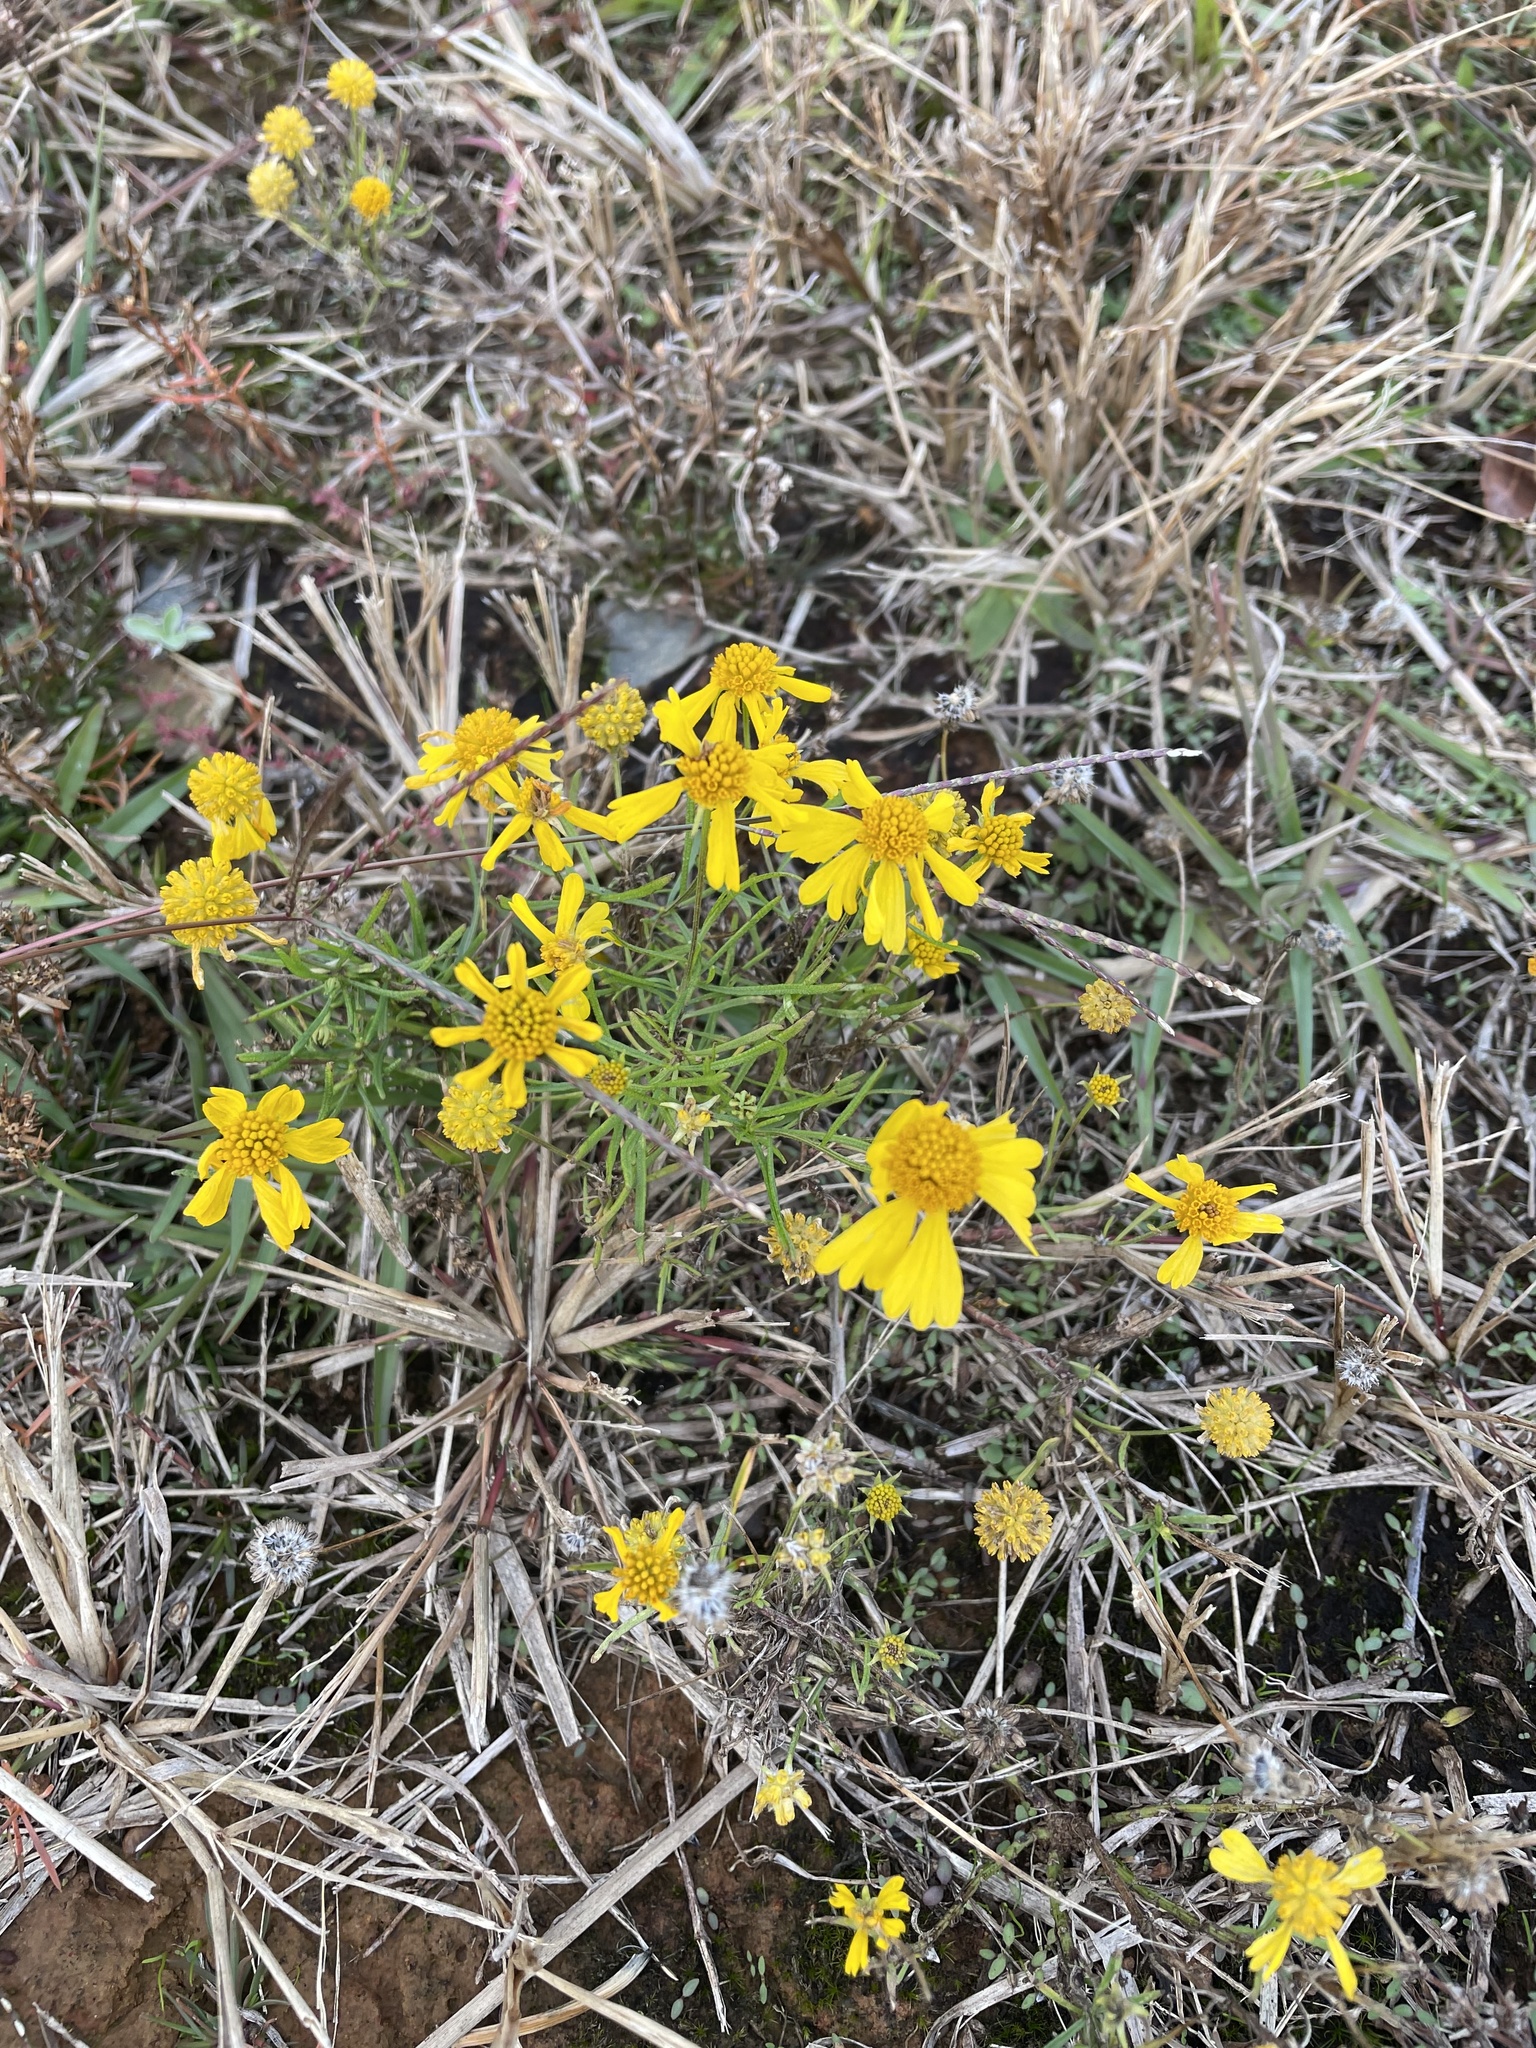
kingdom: Plantae
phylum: Tracheophyta
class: Magnoliopsida
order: Asterales
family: Asteraceae
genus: Helenium
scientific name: Helenium amarum
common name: Bitter sneezeweed
